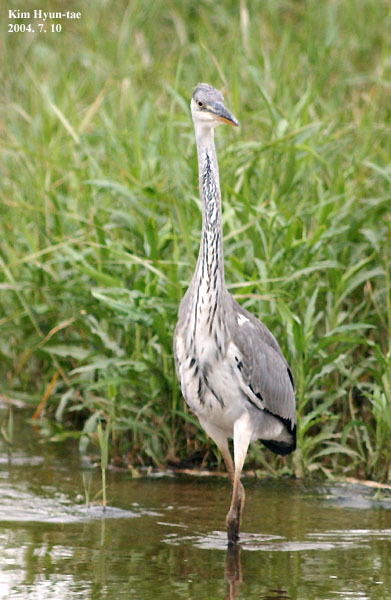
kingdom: Animalia
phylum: Chordata
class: Aves
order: Pelecaniformes
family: Ardeidae
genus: Ardea
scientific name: Ardea cinerea
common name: Grey heron
